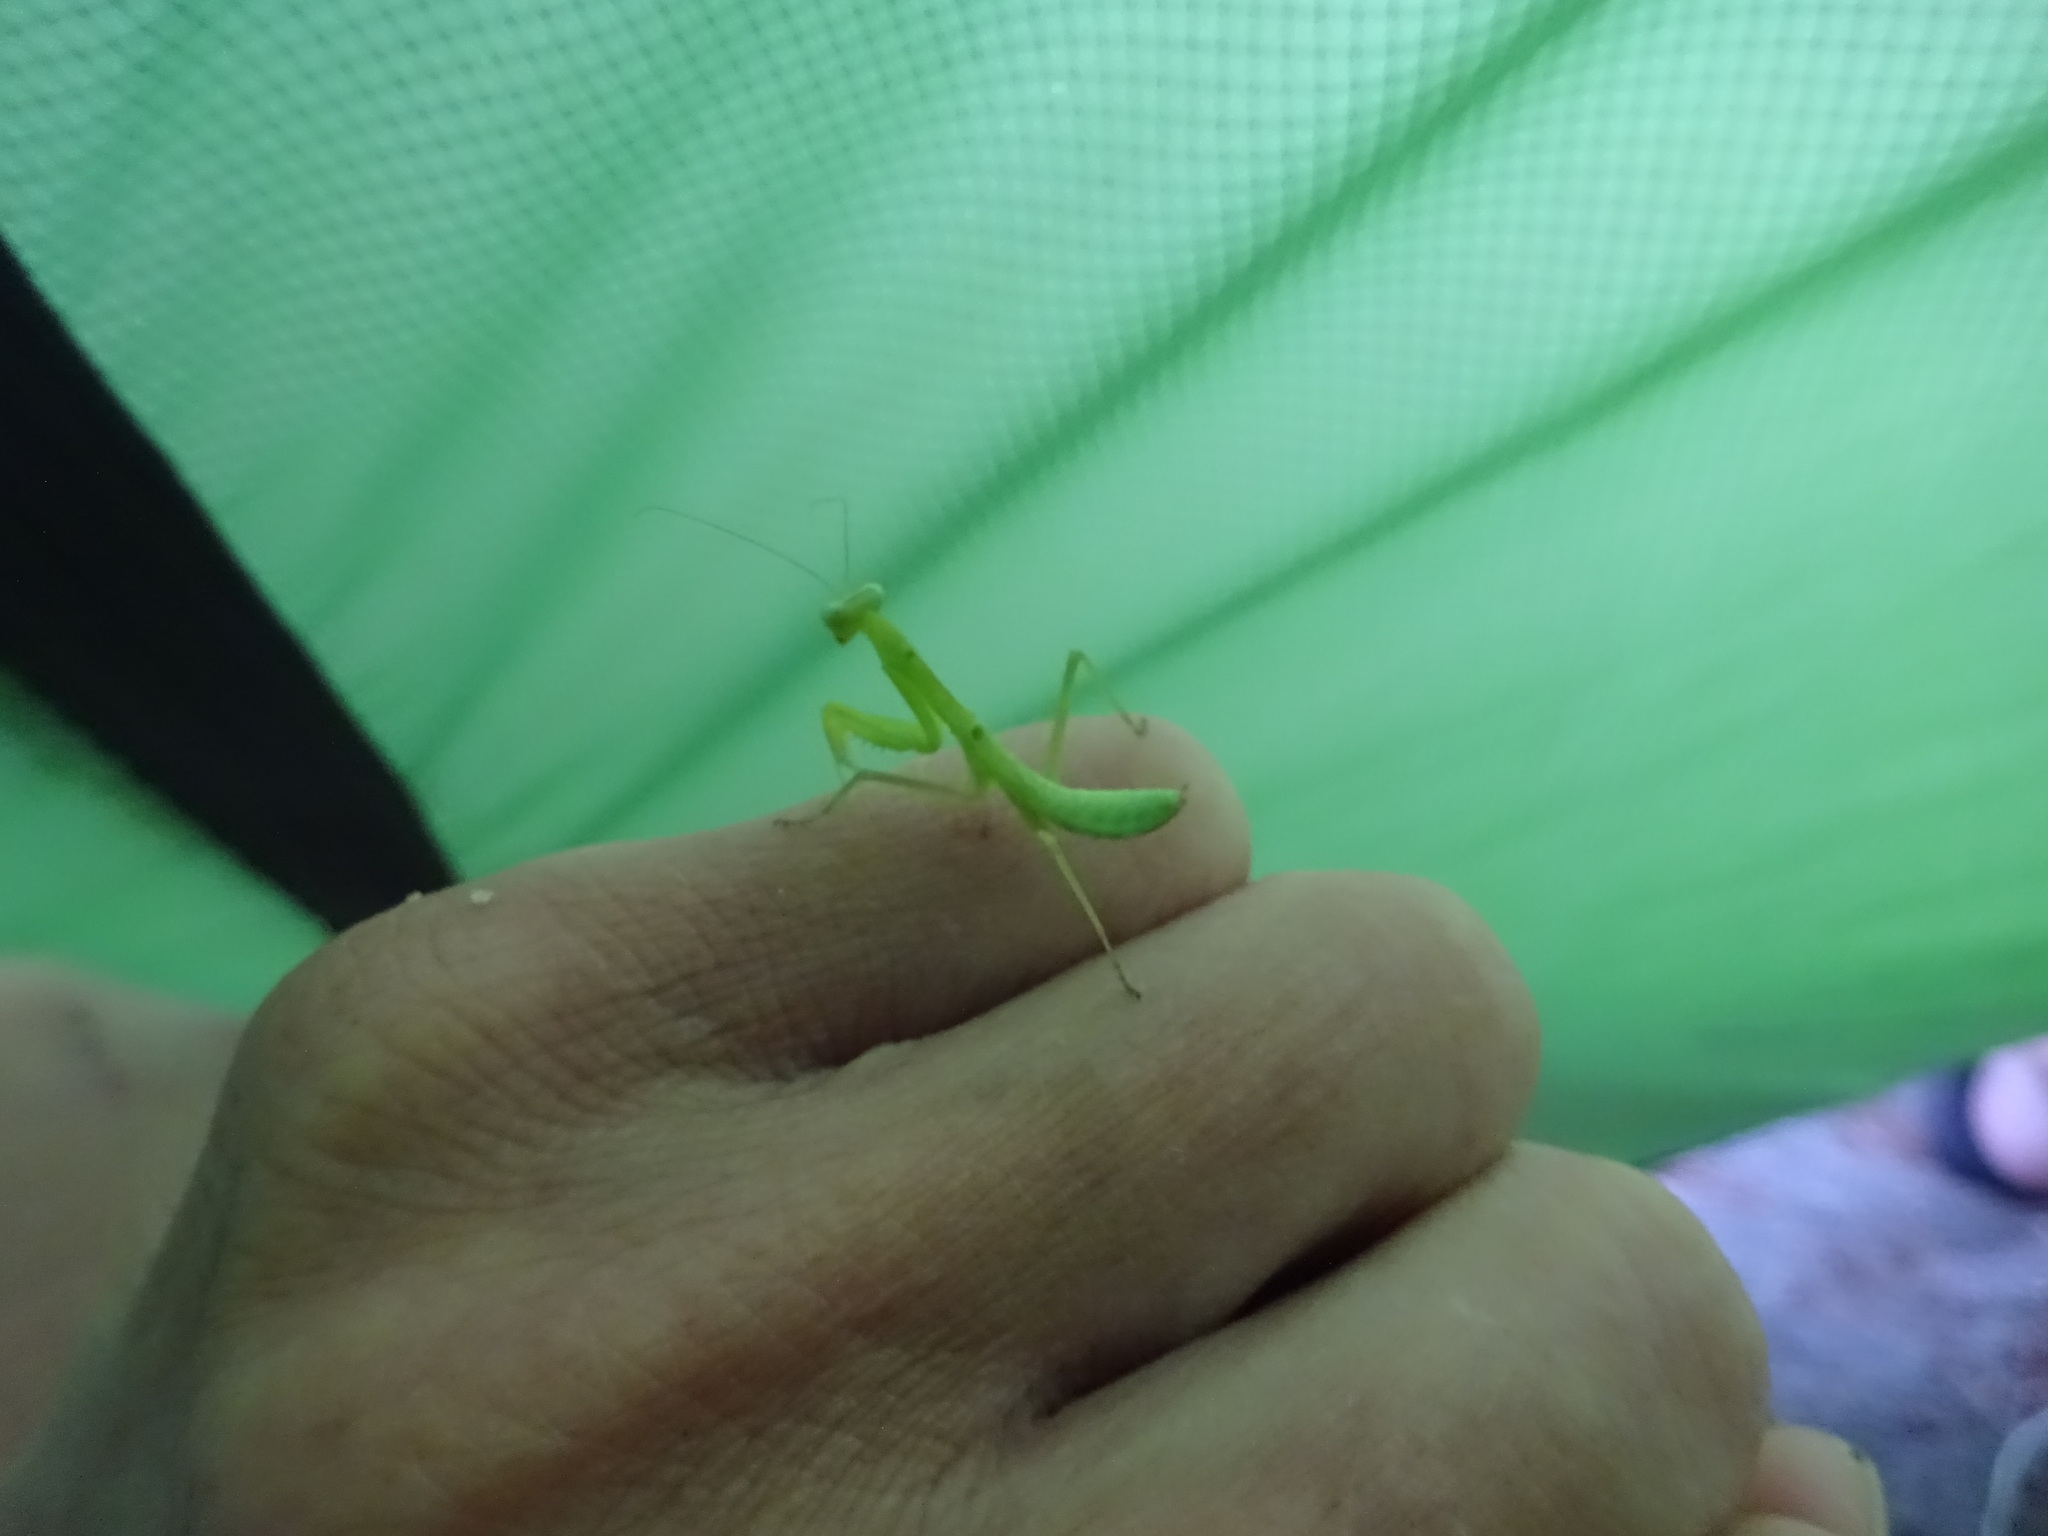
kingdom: Animalia
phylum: Arthropoda
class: Insecta
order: Mantodea
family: Mantidae
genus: Hierodula
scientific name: Hierodula transcaucasica
